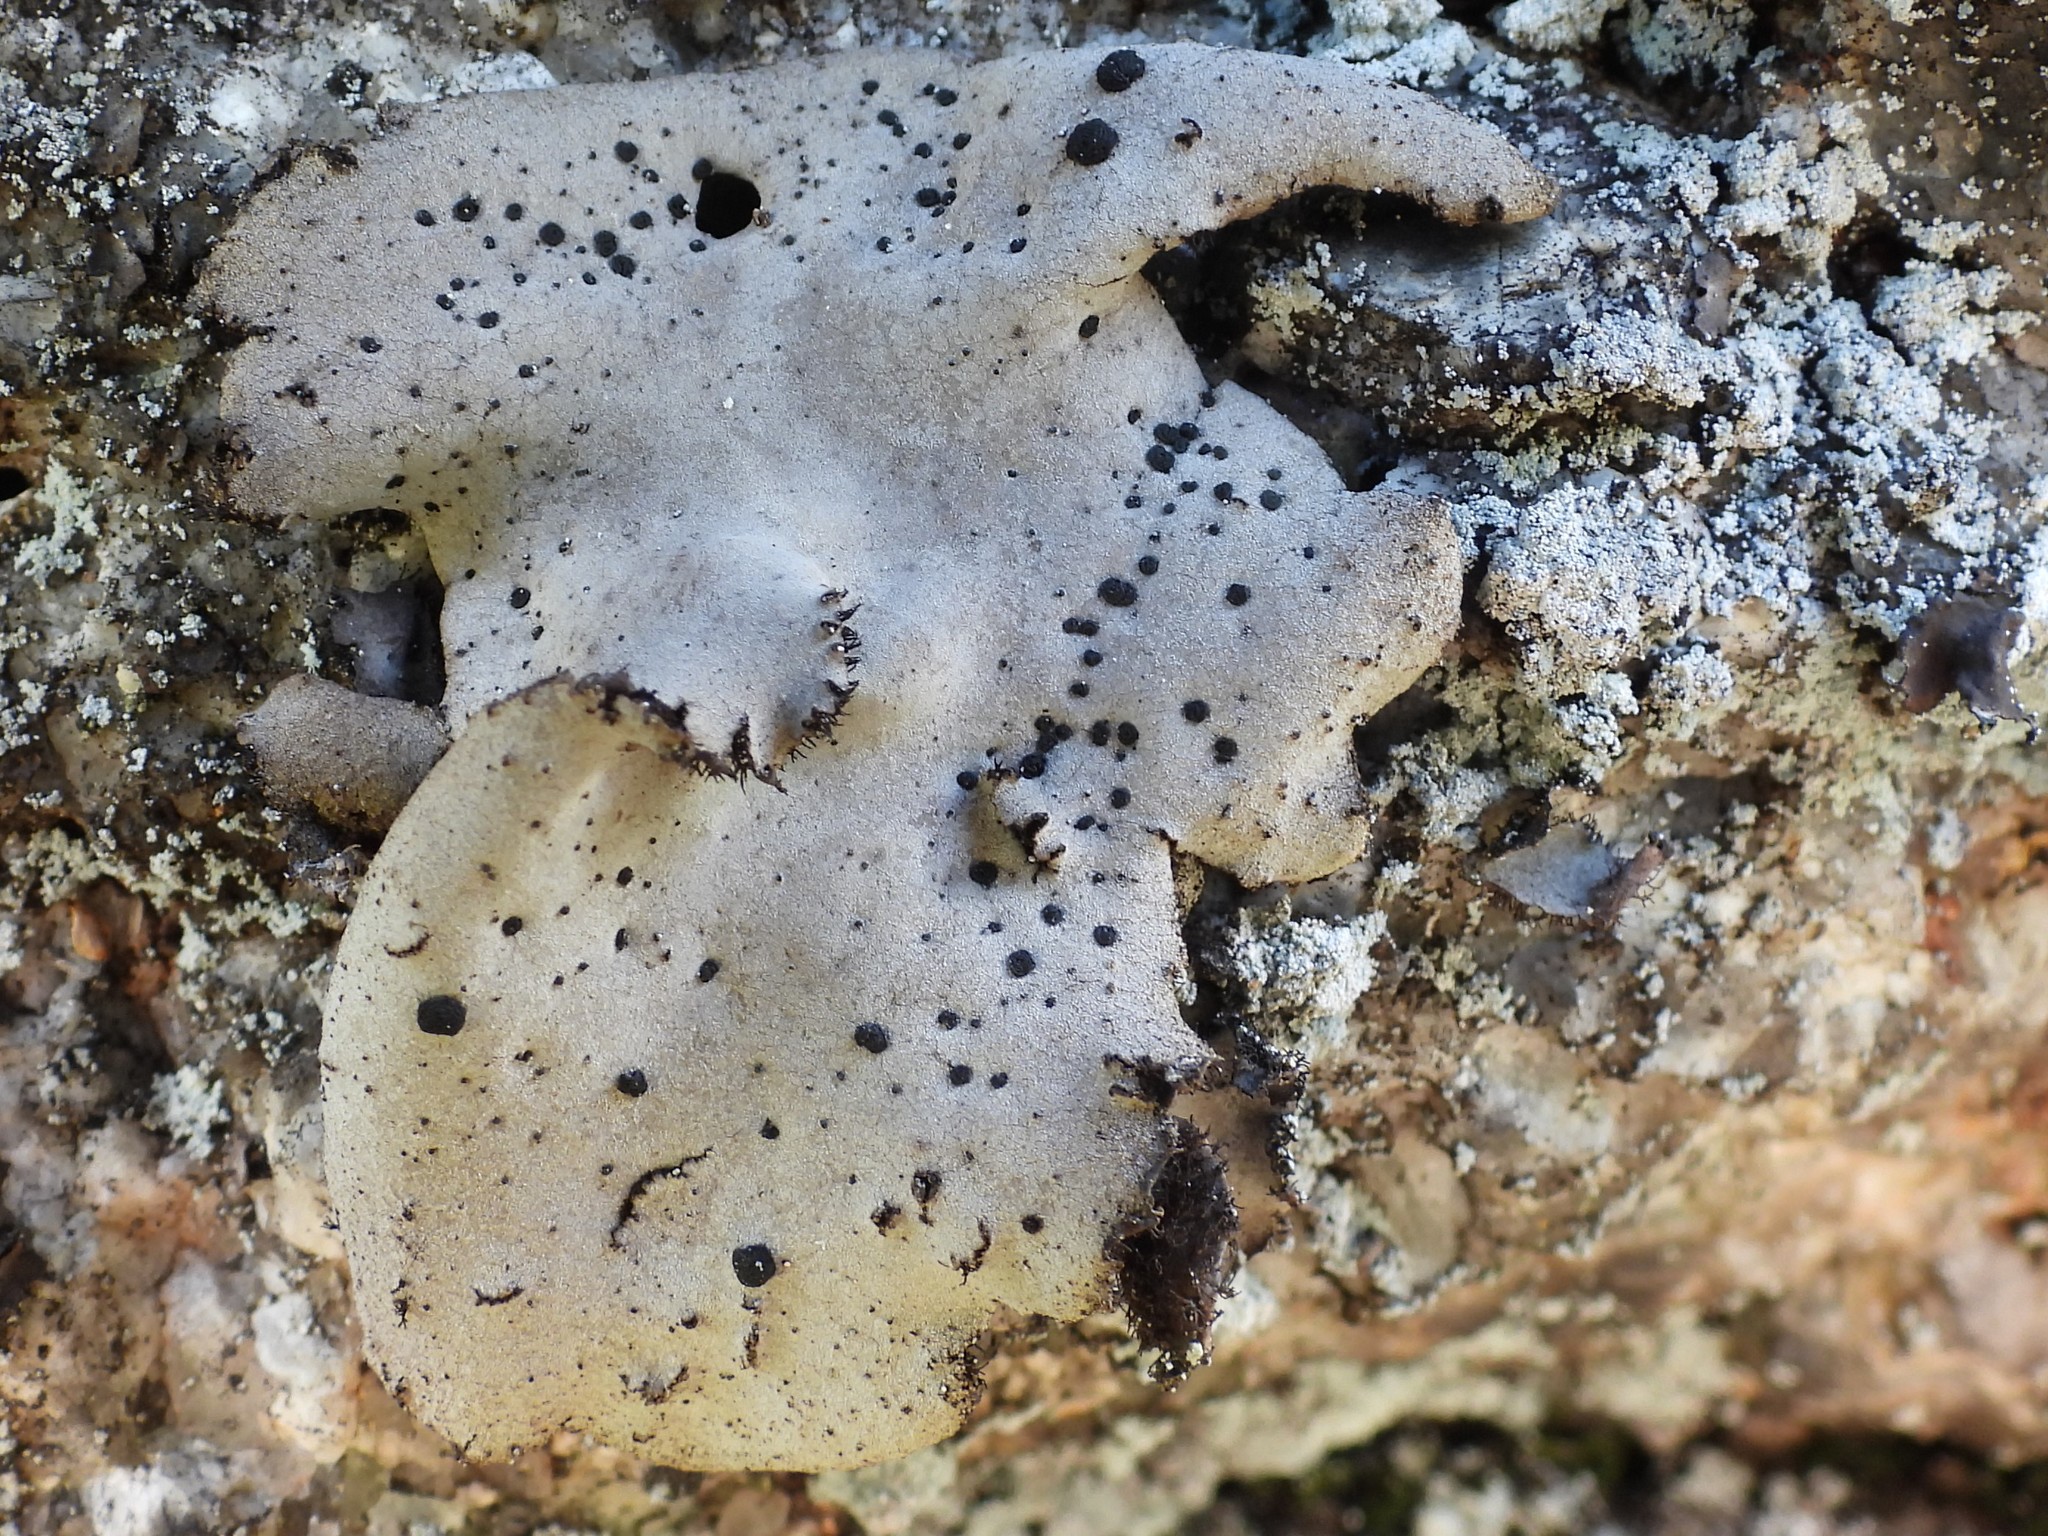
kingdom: Fungi
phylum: Ascomycota
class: Lecanoromycetes
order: Umbilicariales
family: Umbilicariaceae
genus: Umbilicaria
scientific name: Umbilicaria hirsuta
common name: Granulating rocktripe lichen
